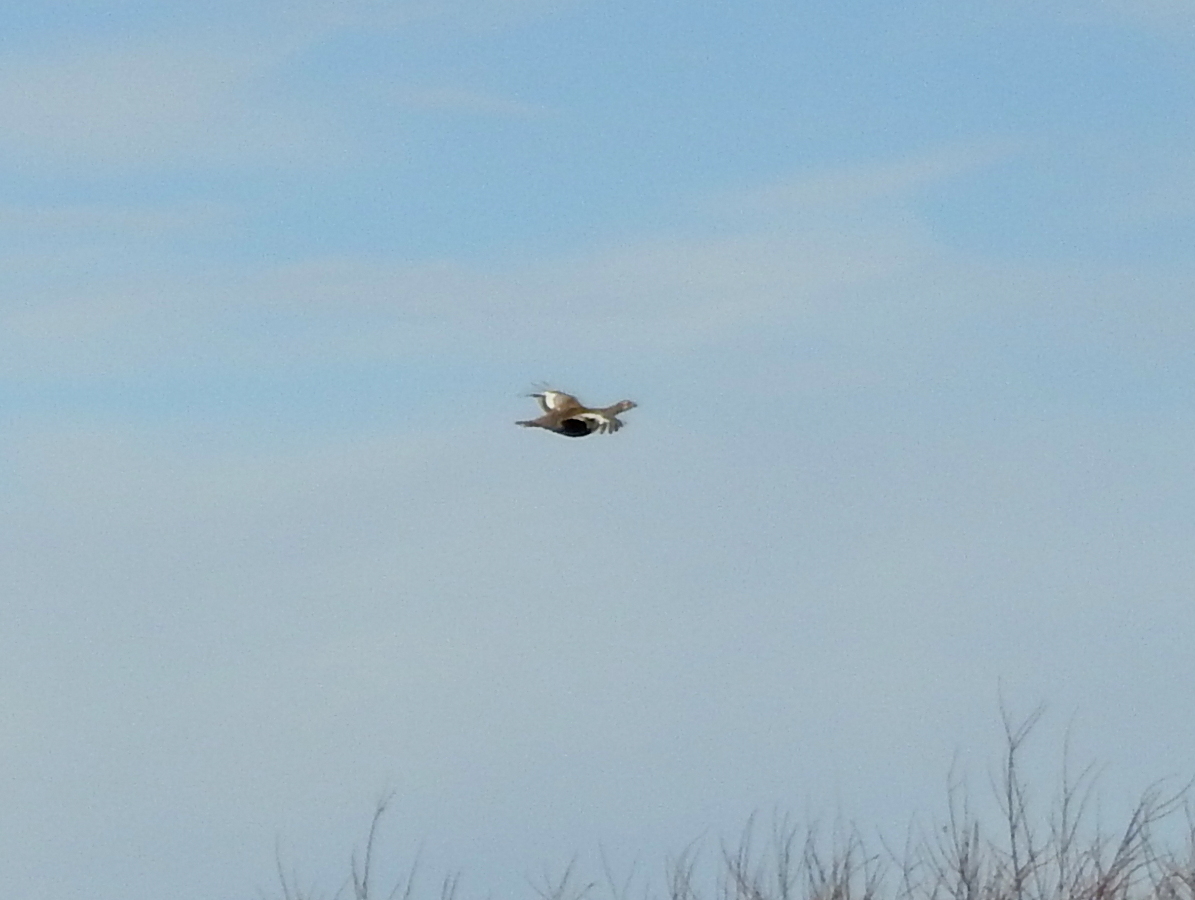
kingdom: Animalia
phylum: Chordata
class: Aves
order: Galliformes
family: Phasianidae
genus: Lyrurus
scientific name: Lyrurus tetrix
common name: Black grouse
